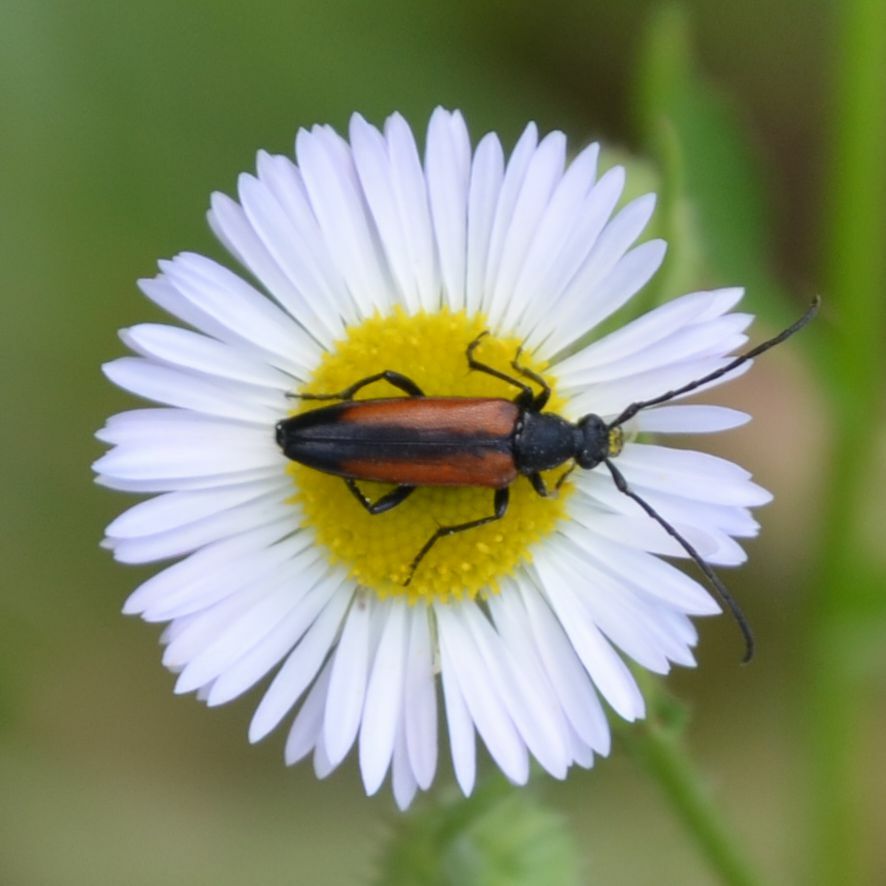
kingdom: Animalia
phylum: Arthropoda
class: Insecta
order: Coleoptera
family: Cerambycidae
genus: Stenurella
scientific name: Stenurella melanura
